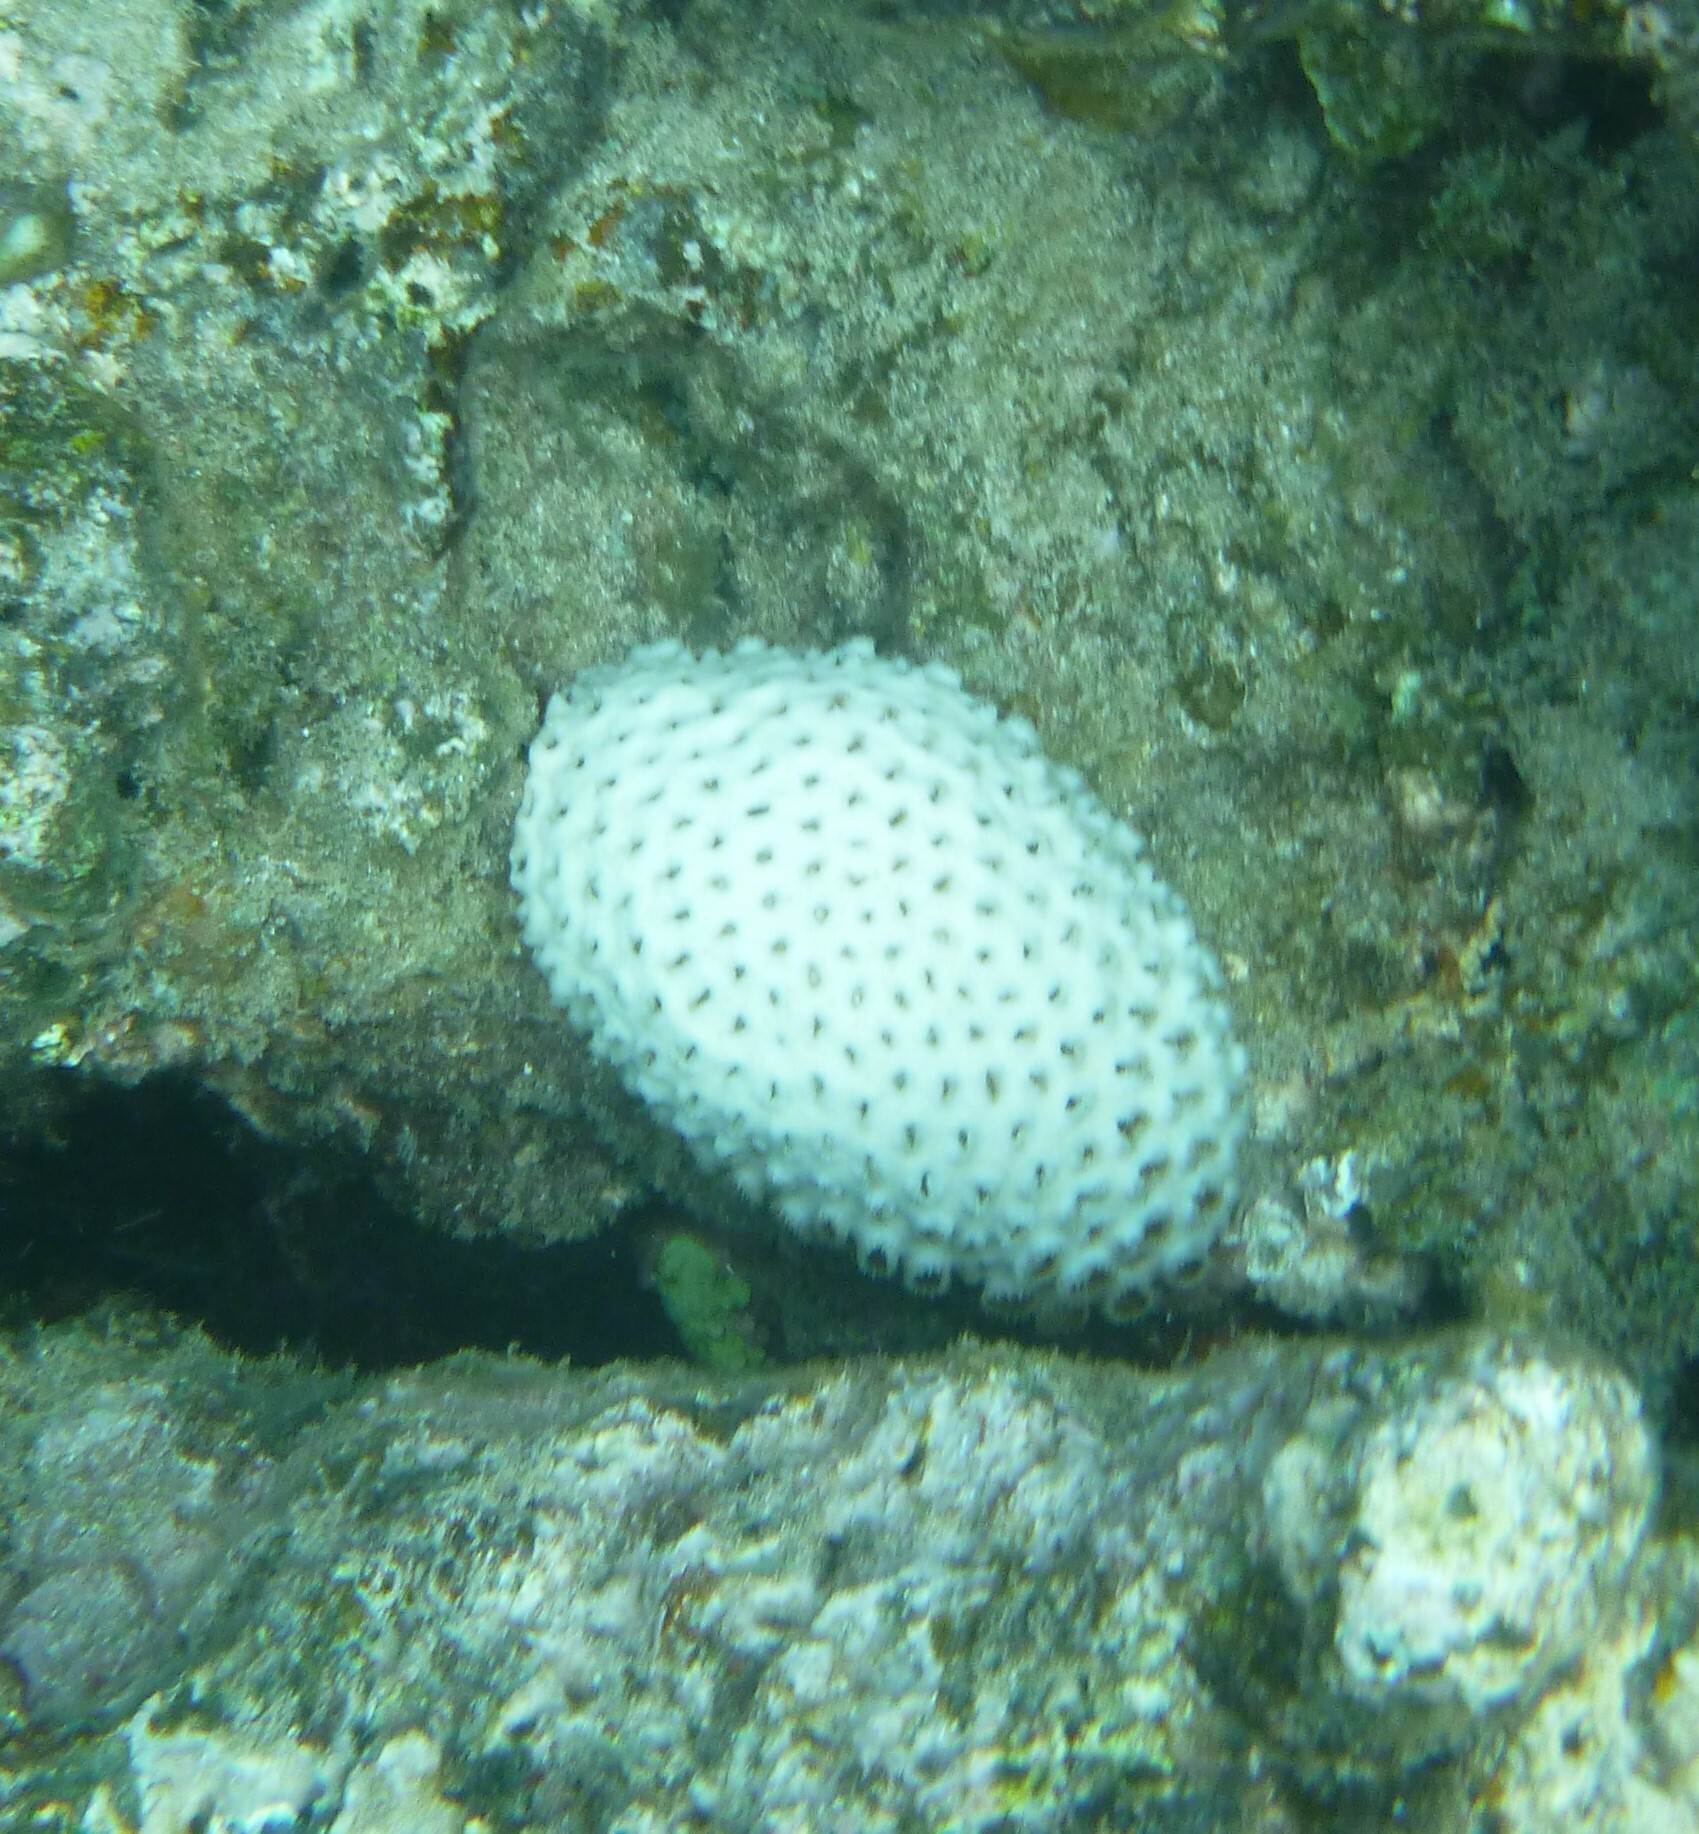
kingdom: Animalia
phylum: Cnidaria
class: Anthozoa
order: Zoantharia
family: Sphenopidae
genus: Palythoa
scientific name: Palythoa tuberculosa
